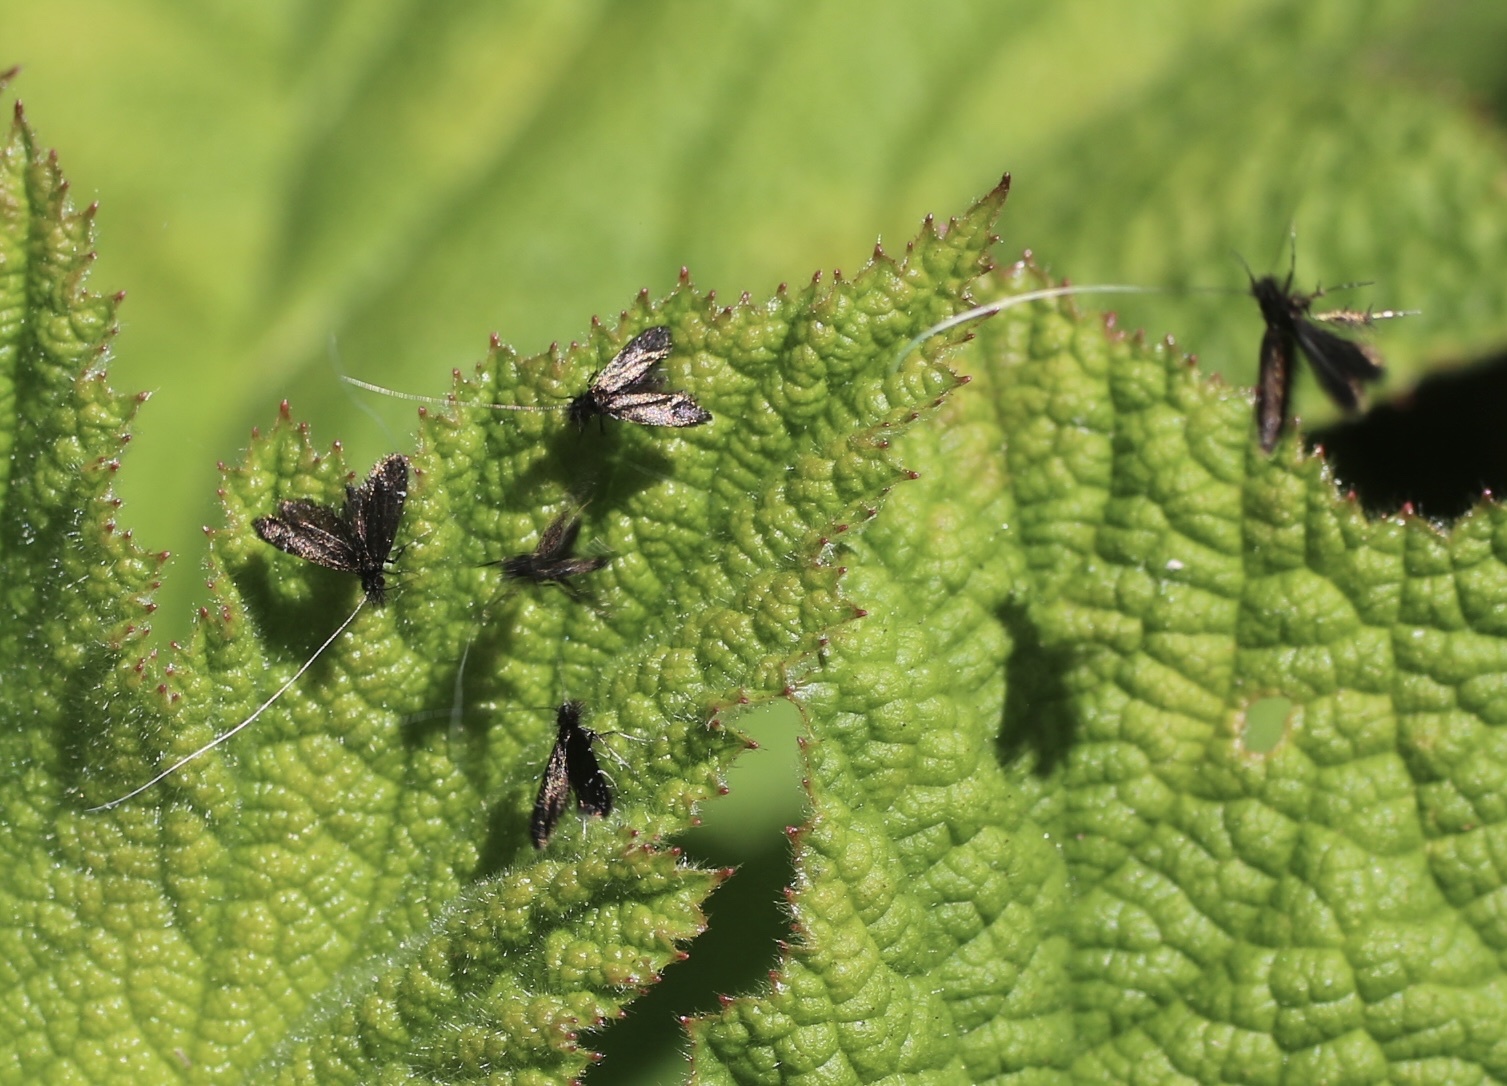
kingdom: Animalia
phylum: Arthropoda
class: Insecta
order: Lepidoptera
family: Adelidae
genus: Adela
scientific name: Adela septentrionella
